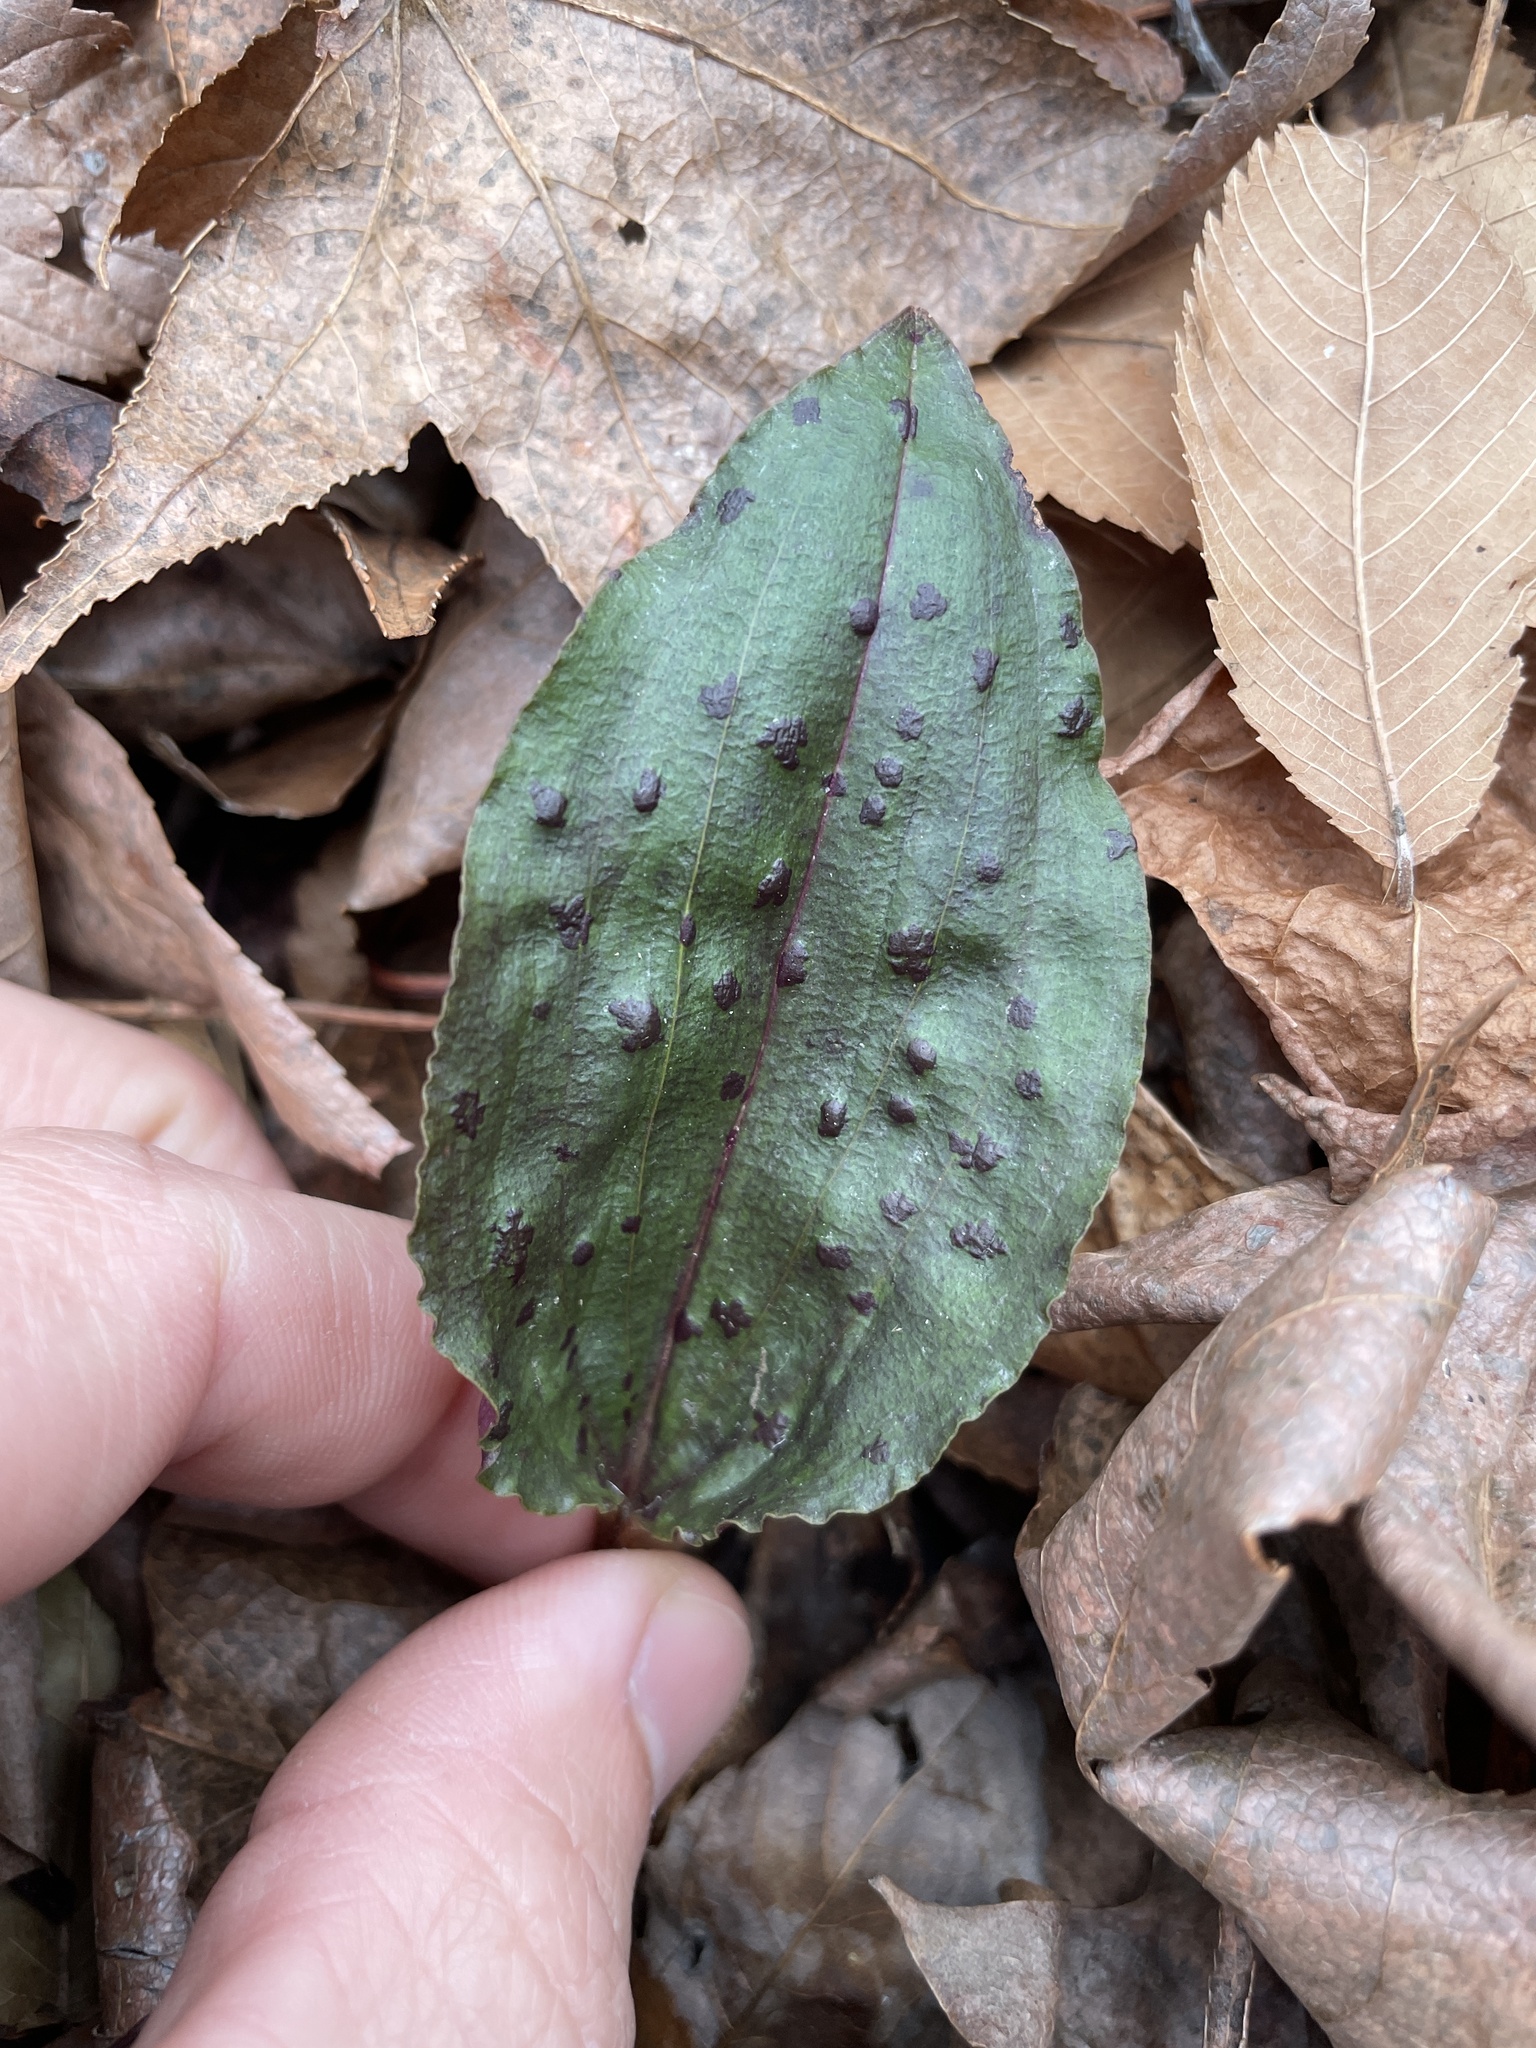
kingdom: Plantae
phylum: Tracheophyta
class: Liliopsida
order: Asparagales
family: Orchidaceae
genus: Tipularia
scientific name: Tipularia discolor
